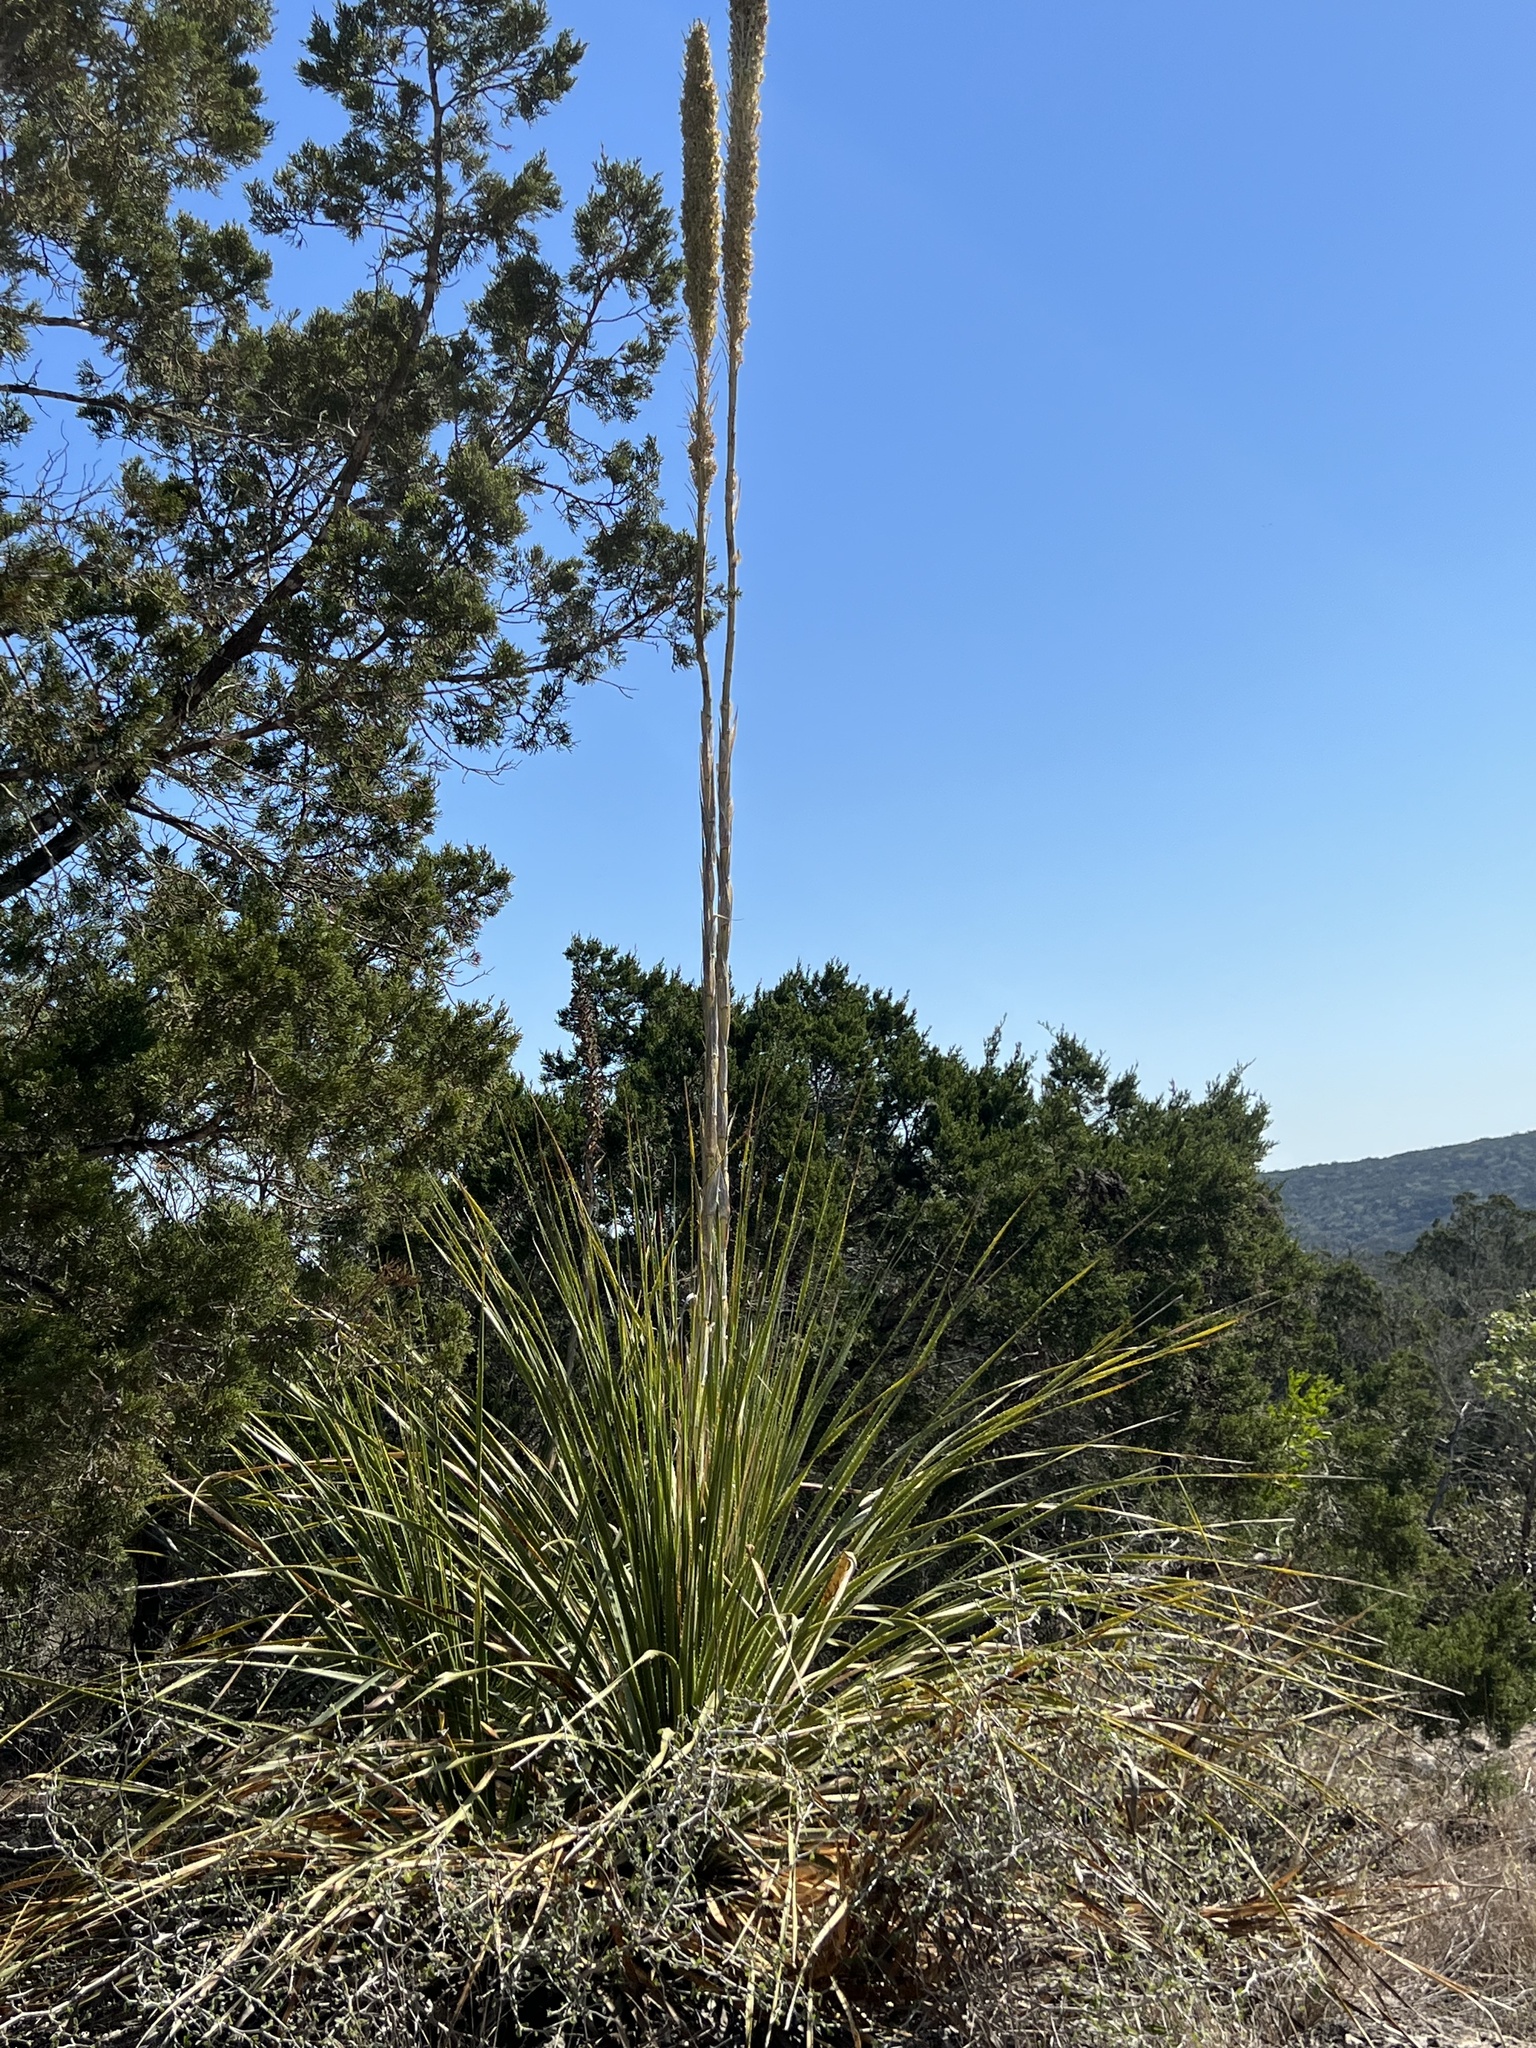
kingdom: Plantae
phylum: Tracheophyta
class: Liliopsida
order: Asparagales
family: Asparagaceae
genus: Dasylirion
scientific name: Dasylirion texanum
